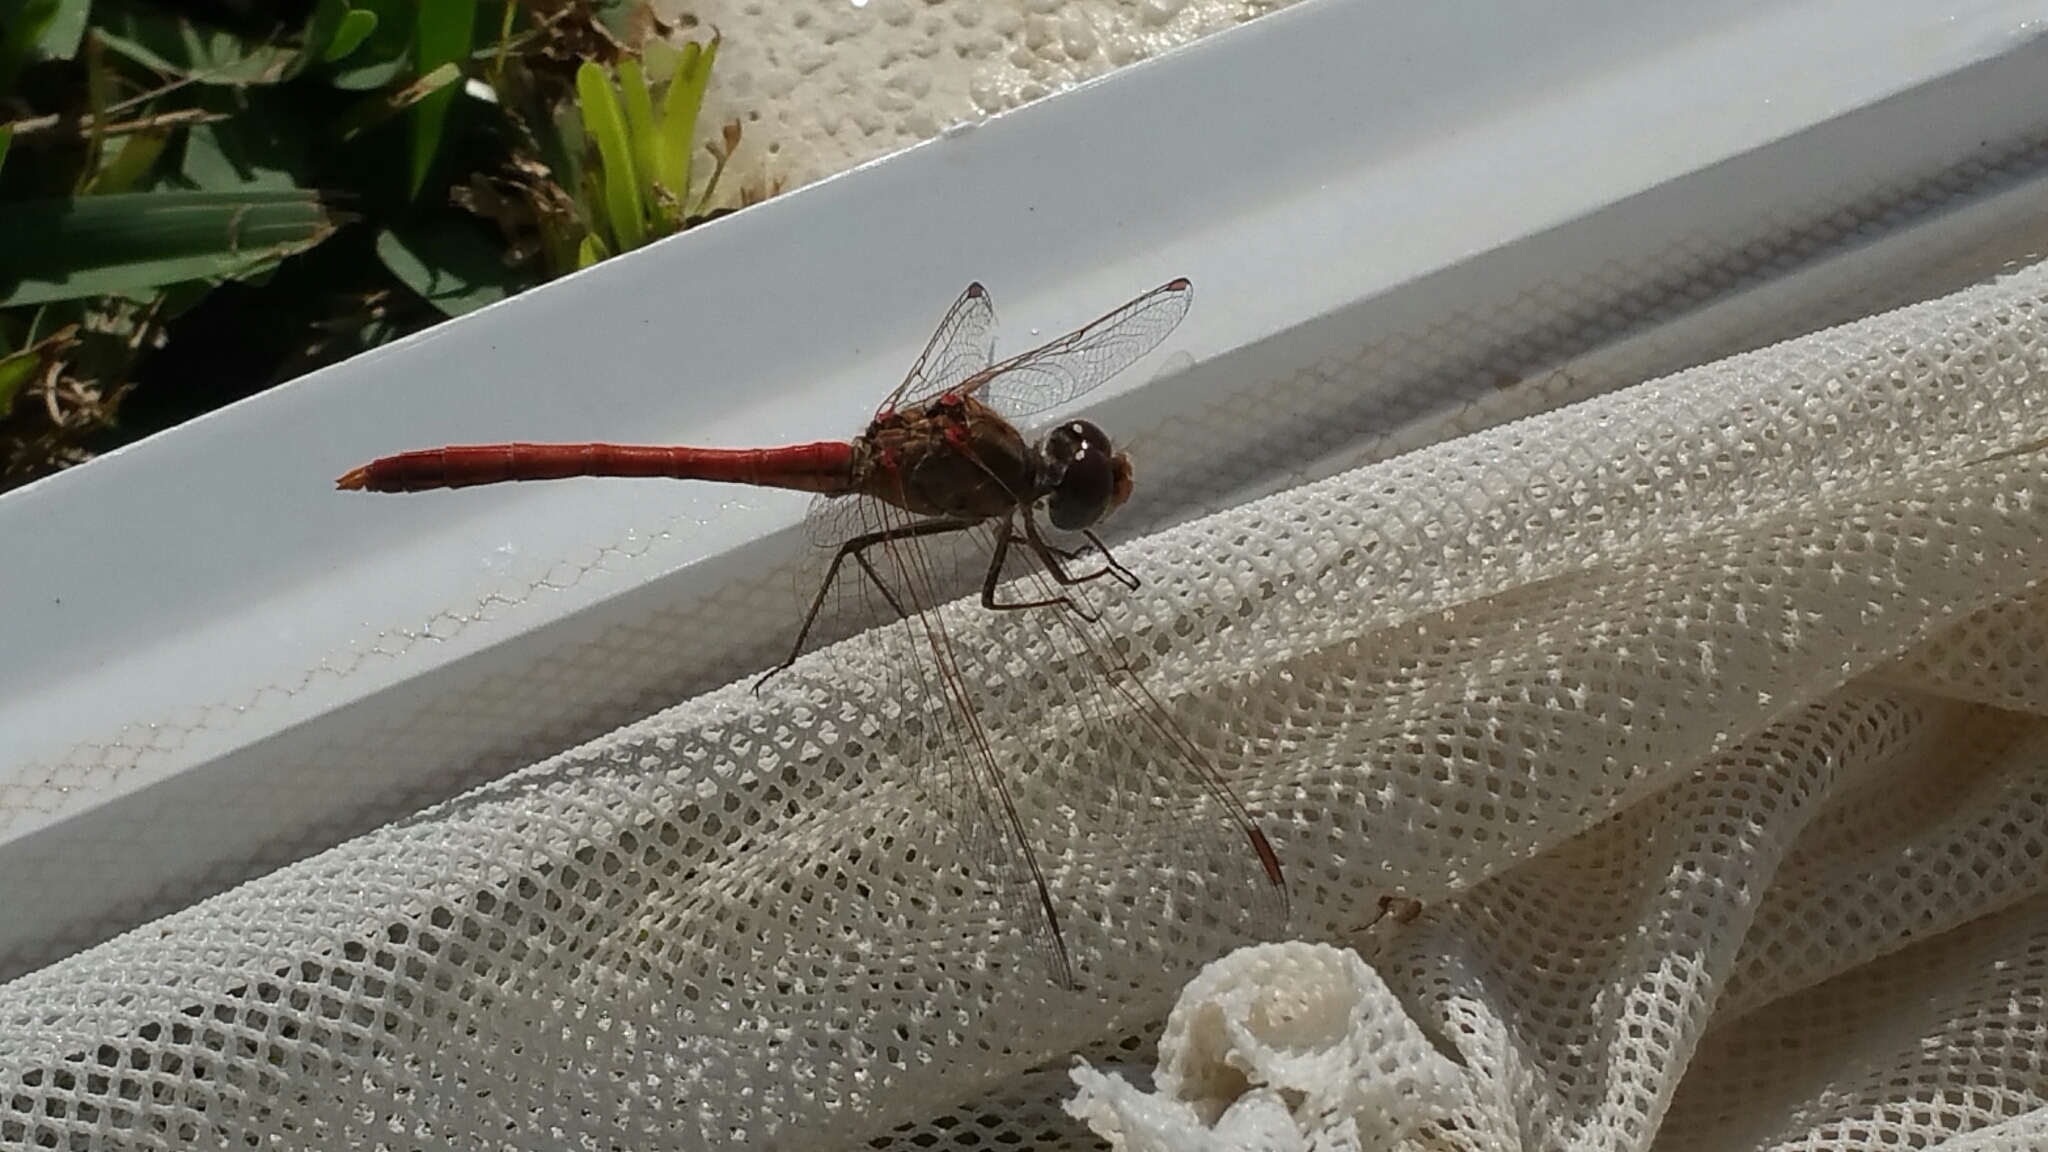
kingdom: Animalia
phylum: Arthropoda
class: Insecta
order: Odonata
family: Libellulidae
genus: Sympetrum
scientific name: Sympetrum sinaiticum
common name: Desert darter
